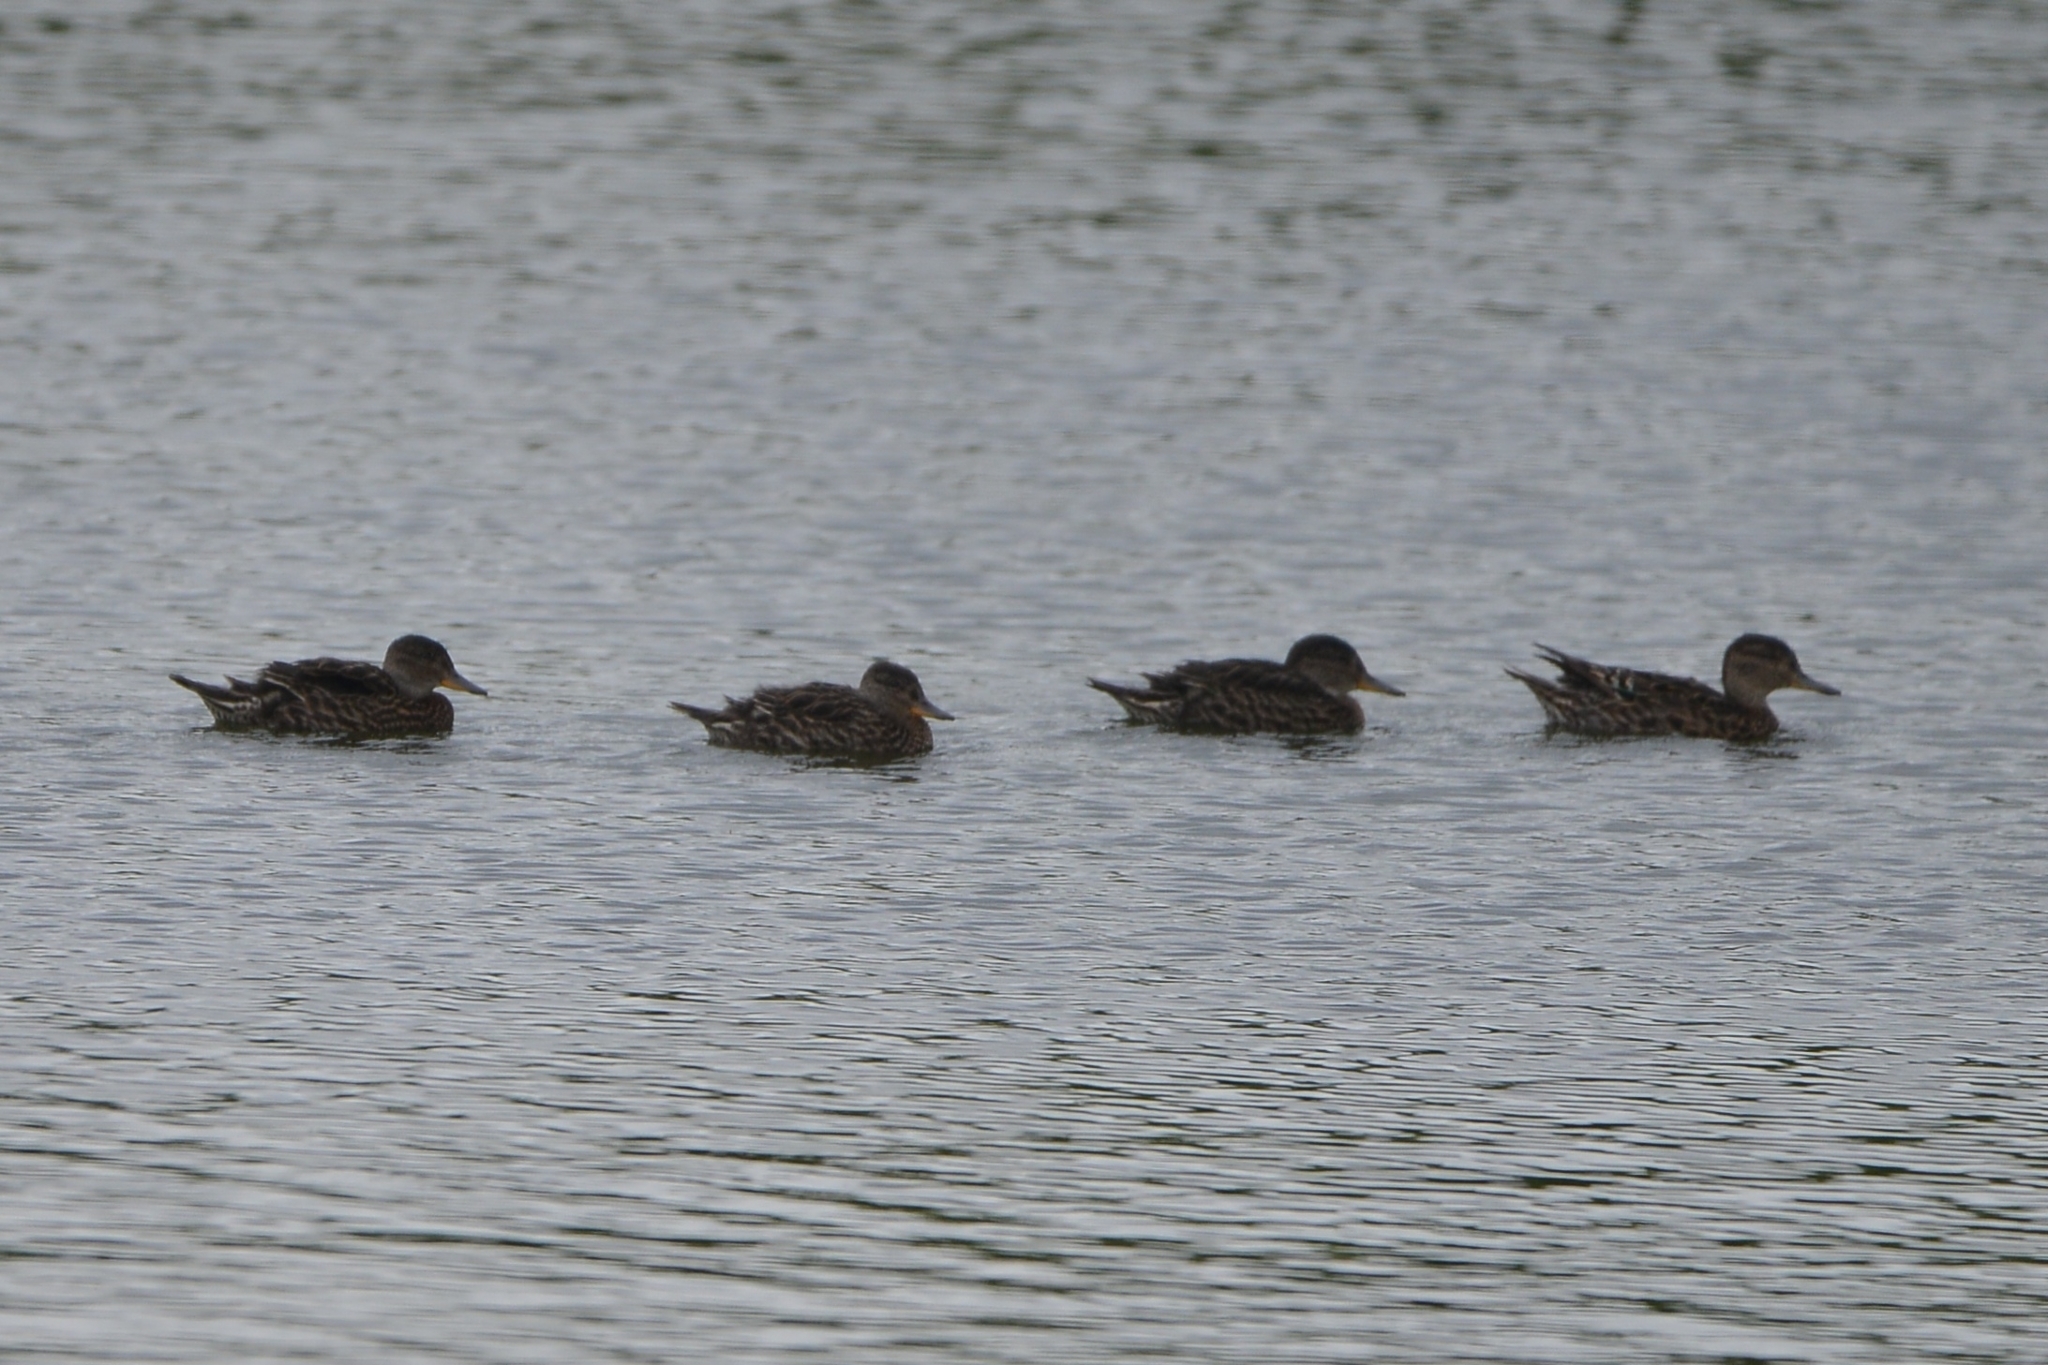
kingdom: Animalia
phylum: Chordata
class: Aves
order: Anseriformes
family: Anatidae
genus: Anas
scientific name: Anas crecca
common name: Eurasian teal
